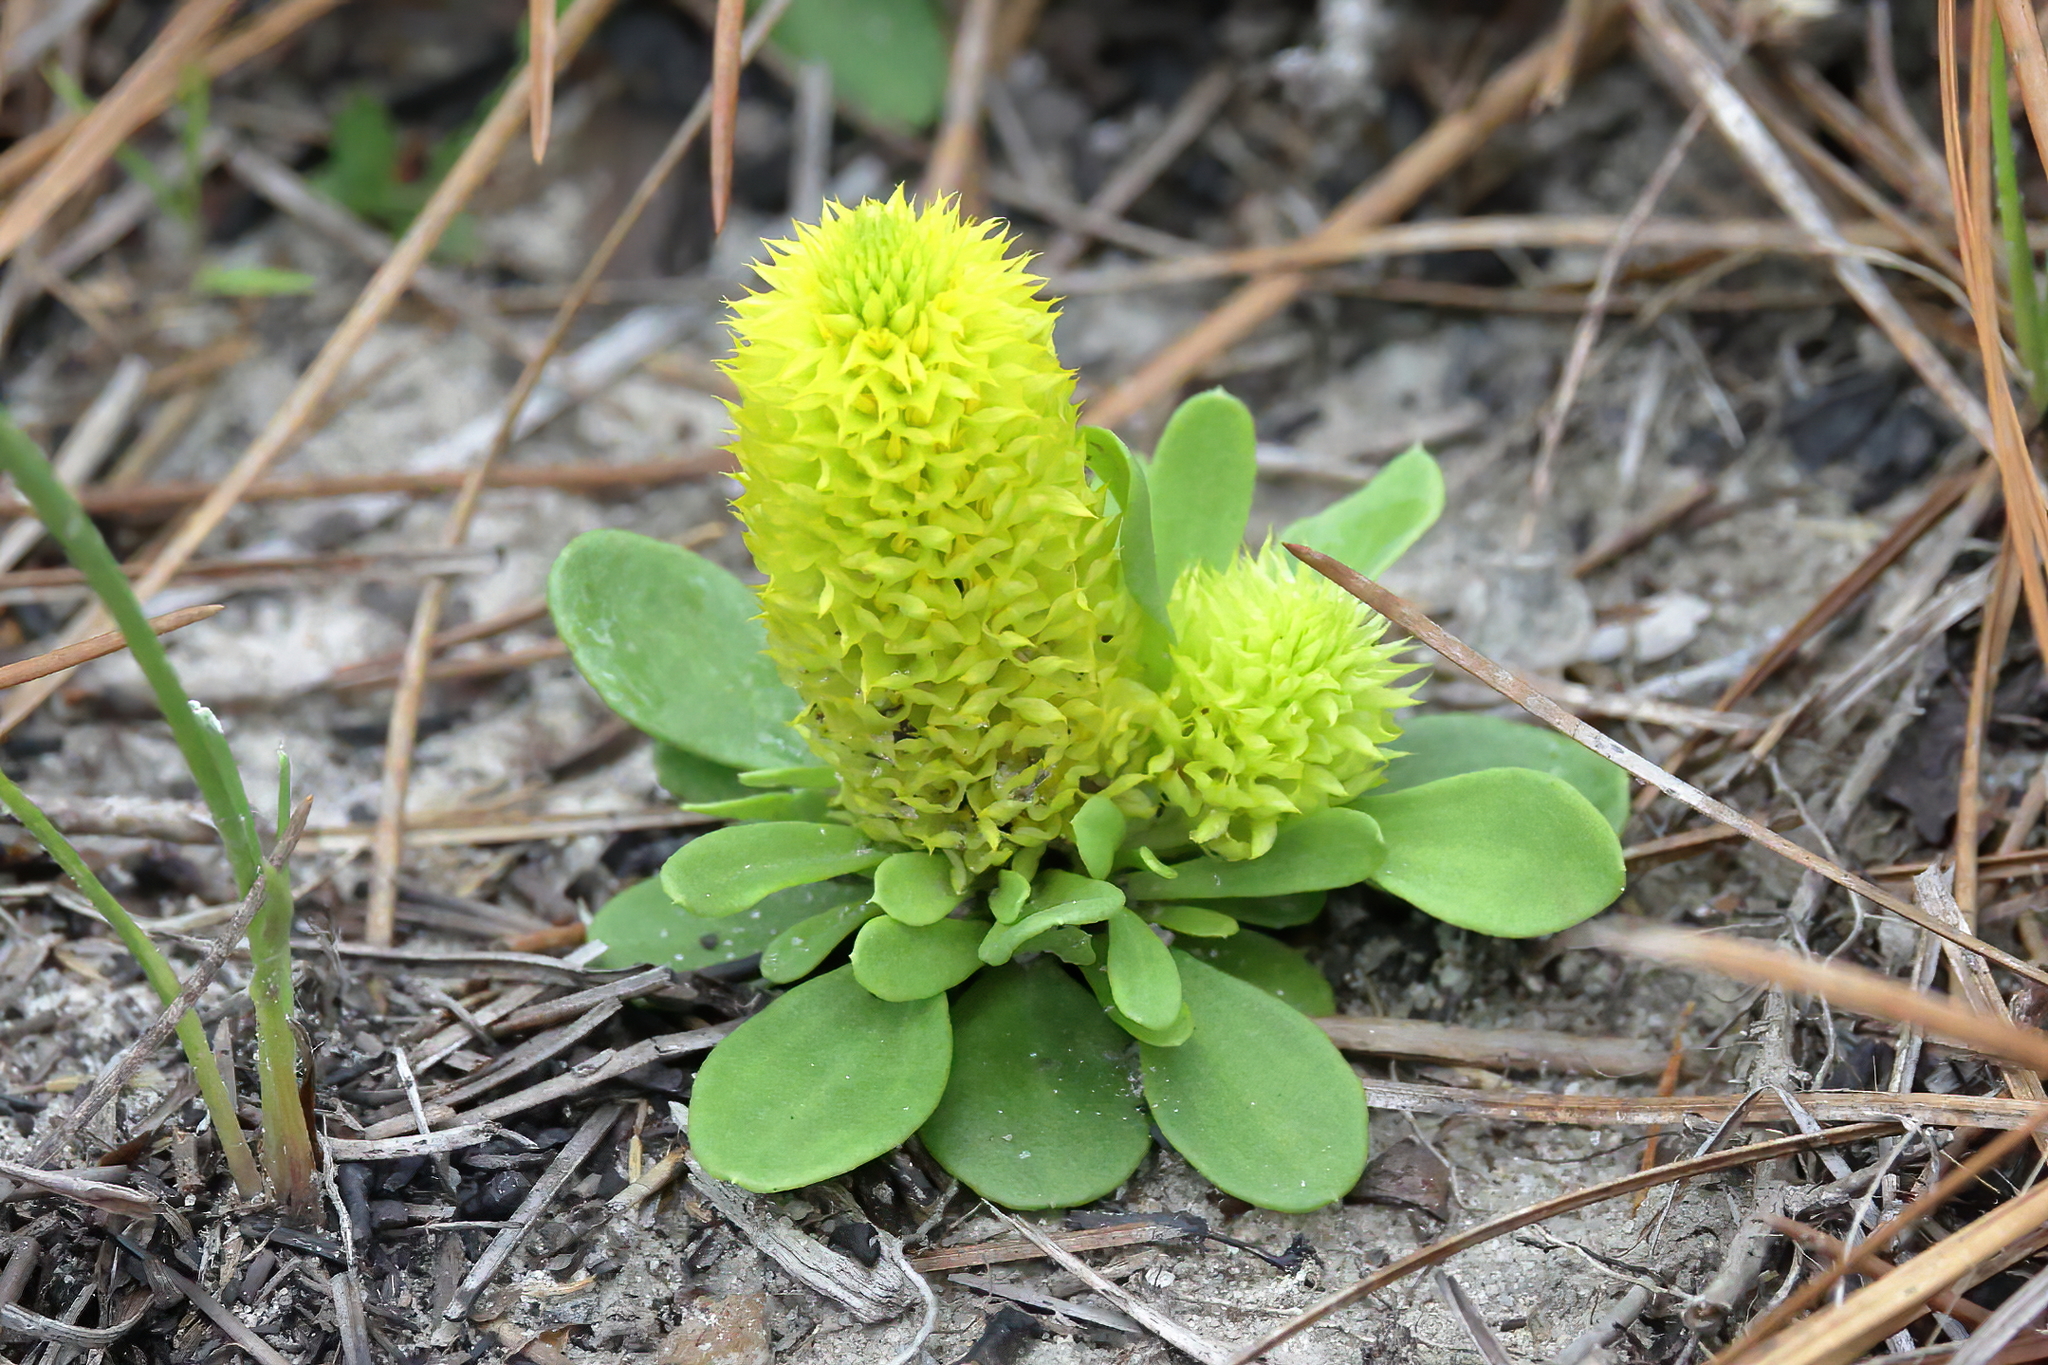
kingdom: Plantae
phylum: Tracheophyta
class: Magnoliopsida
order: Fabales
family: Polygalaceae
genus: Polygala
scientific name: Polygala nana
